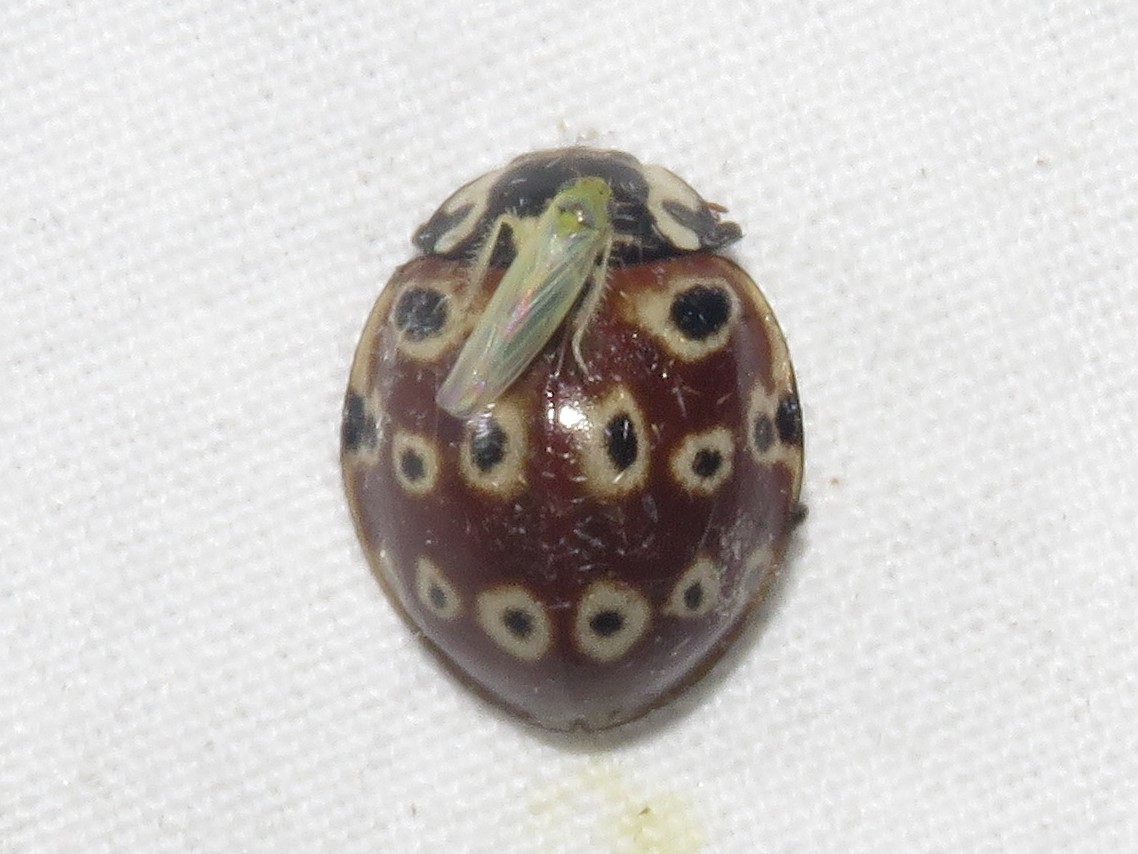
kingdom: Animalia
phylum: Arthropoda
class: Insecta
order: Coleoptera
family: Coccinellidae
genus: Anatis
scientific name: Anatis mali
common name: Eye-spotted lady beetle
